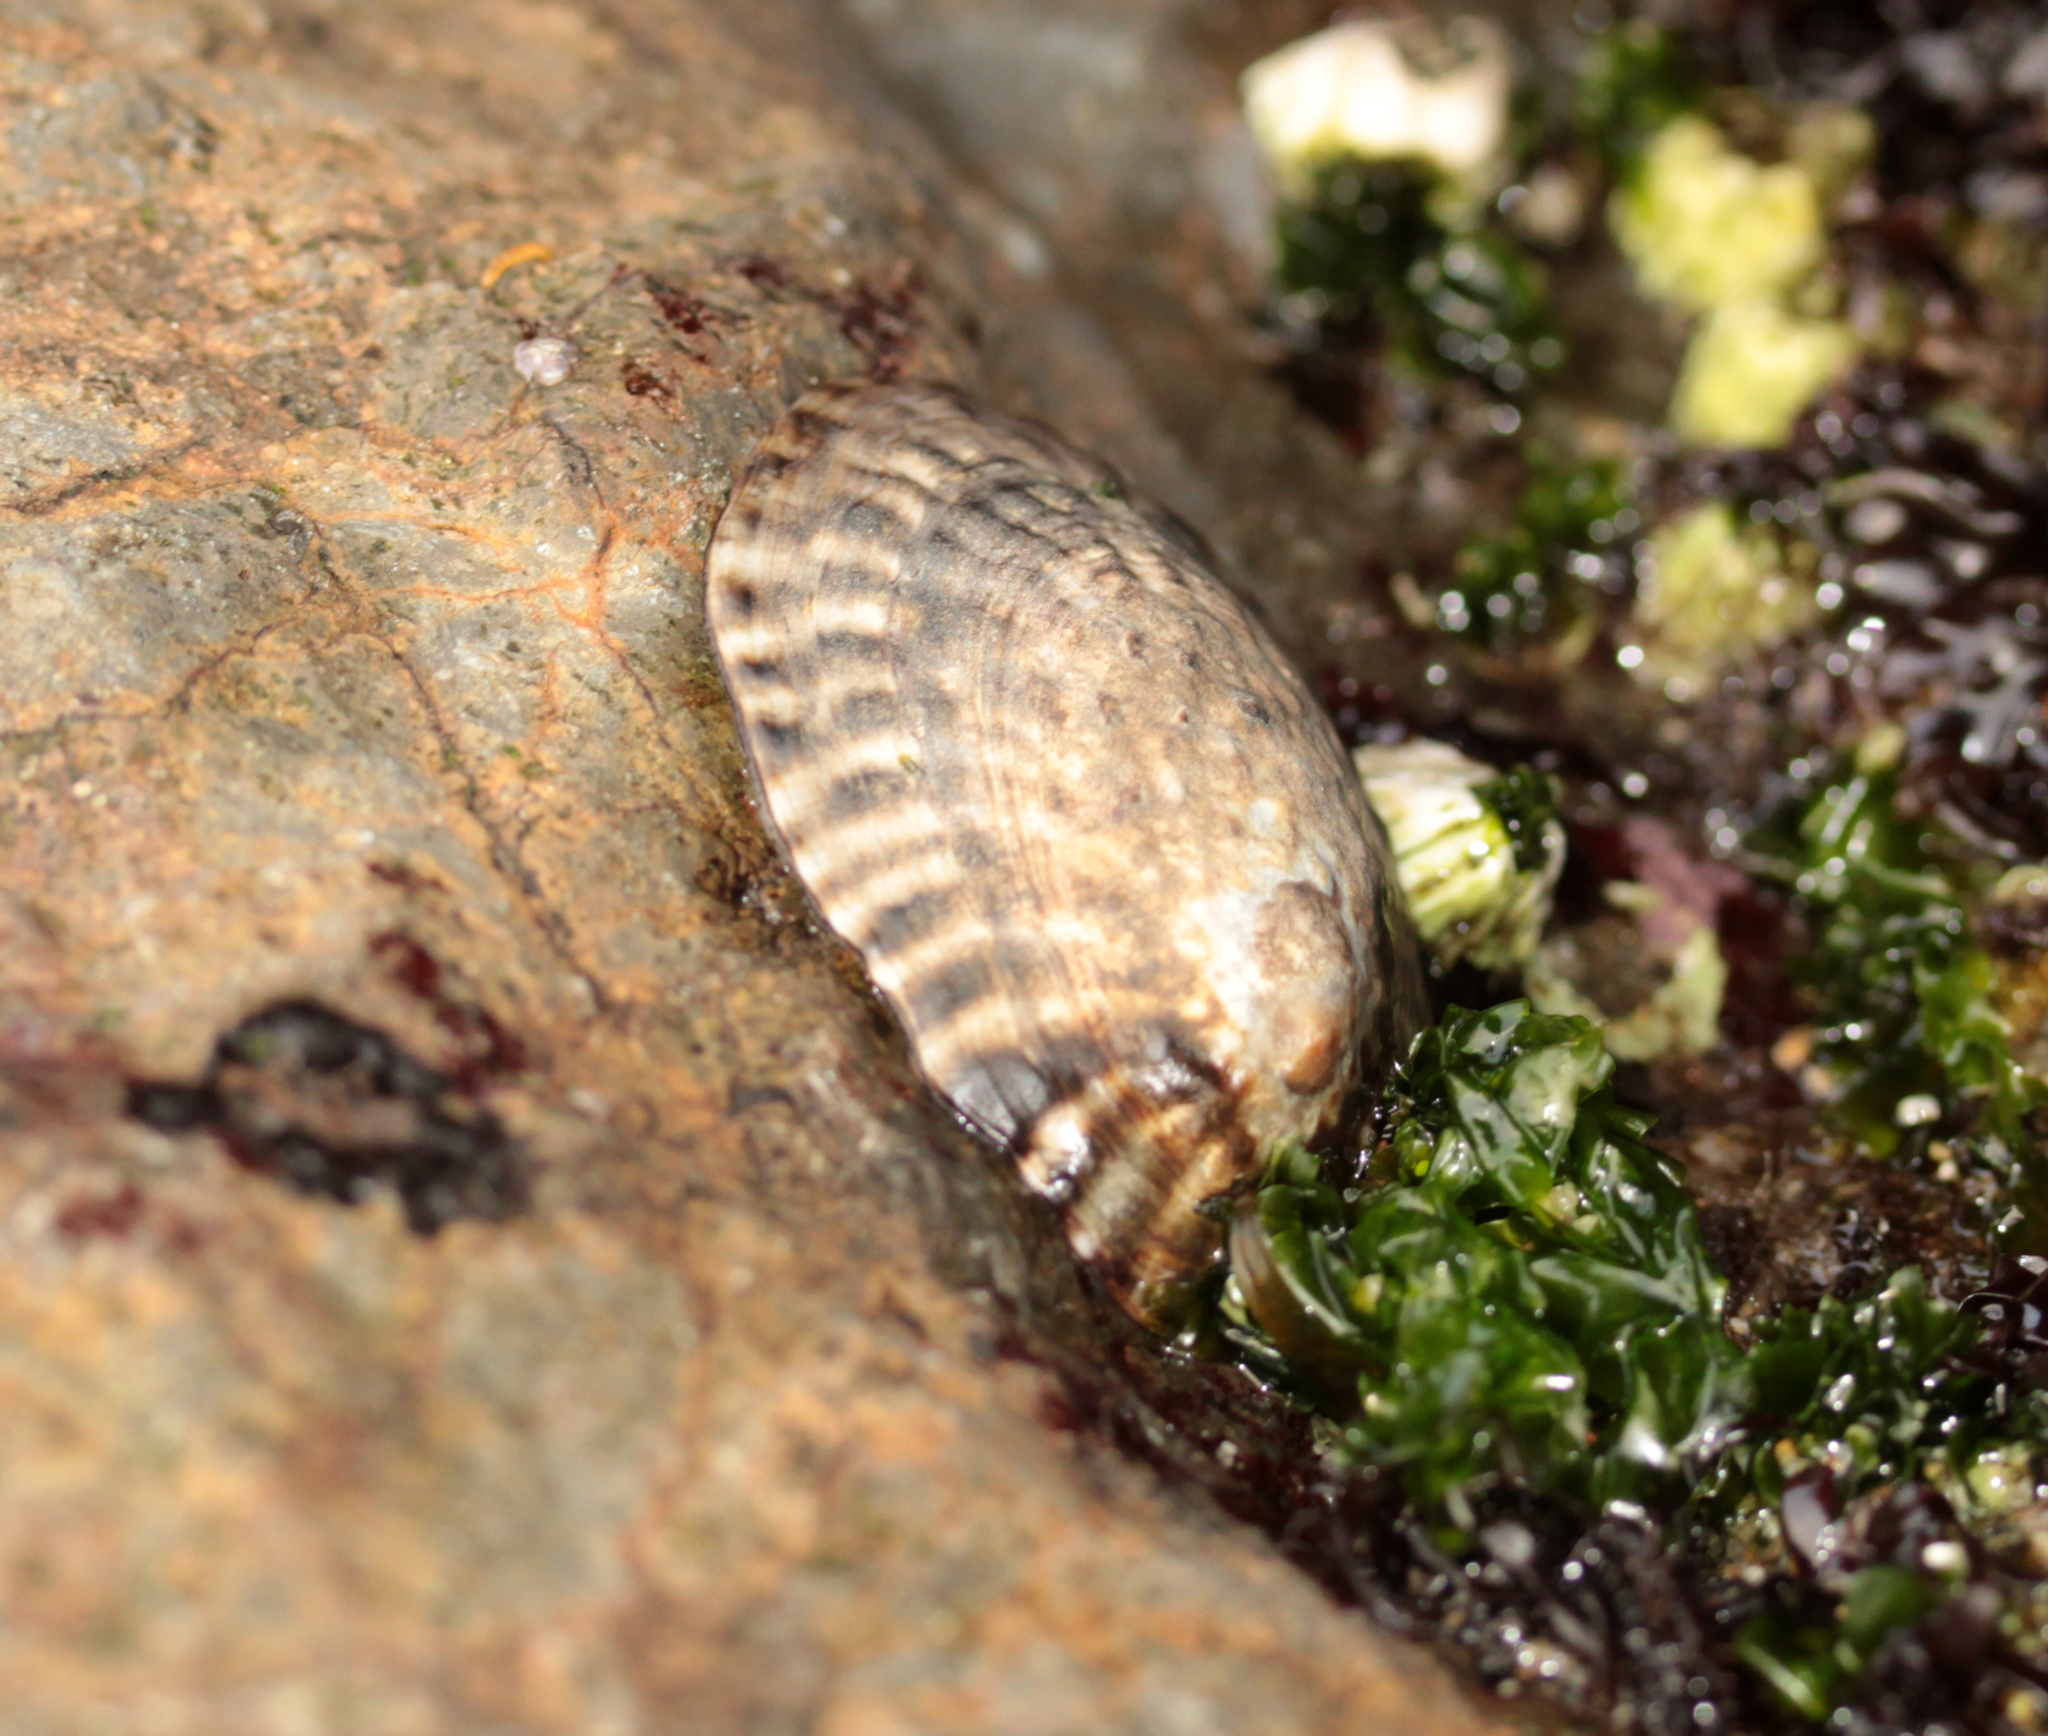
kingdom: Animalia
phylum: Mollusca
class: Gastropoda
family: Lottiidae
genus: Lottia
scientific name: Lottia gigantea
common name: Owl limpet
